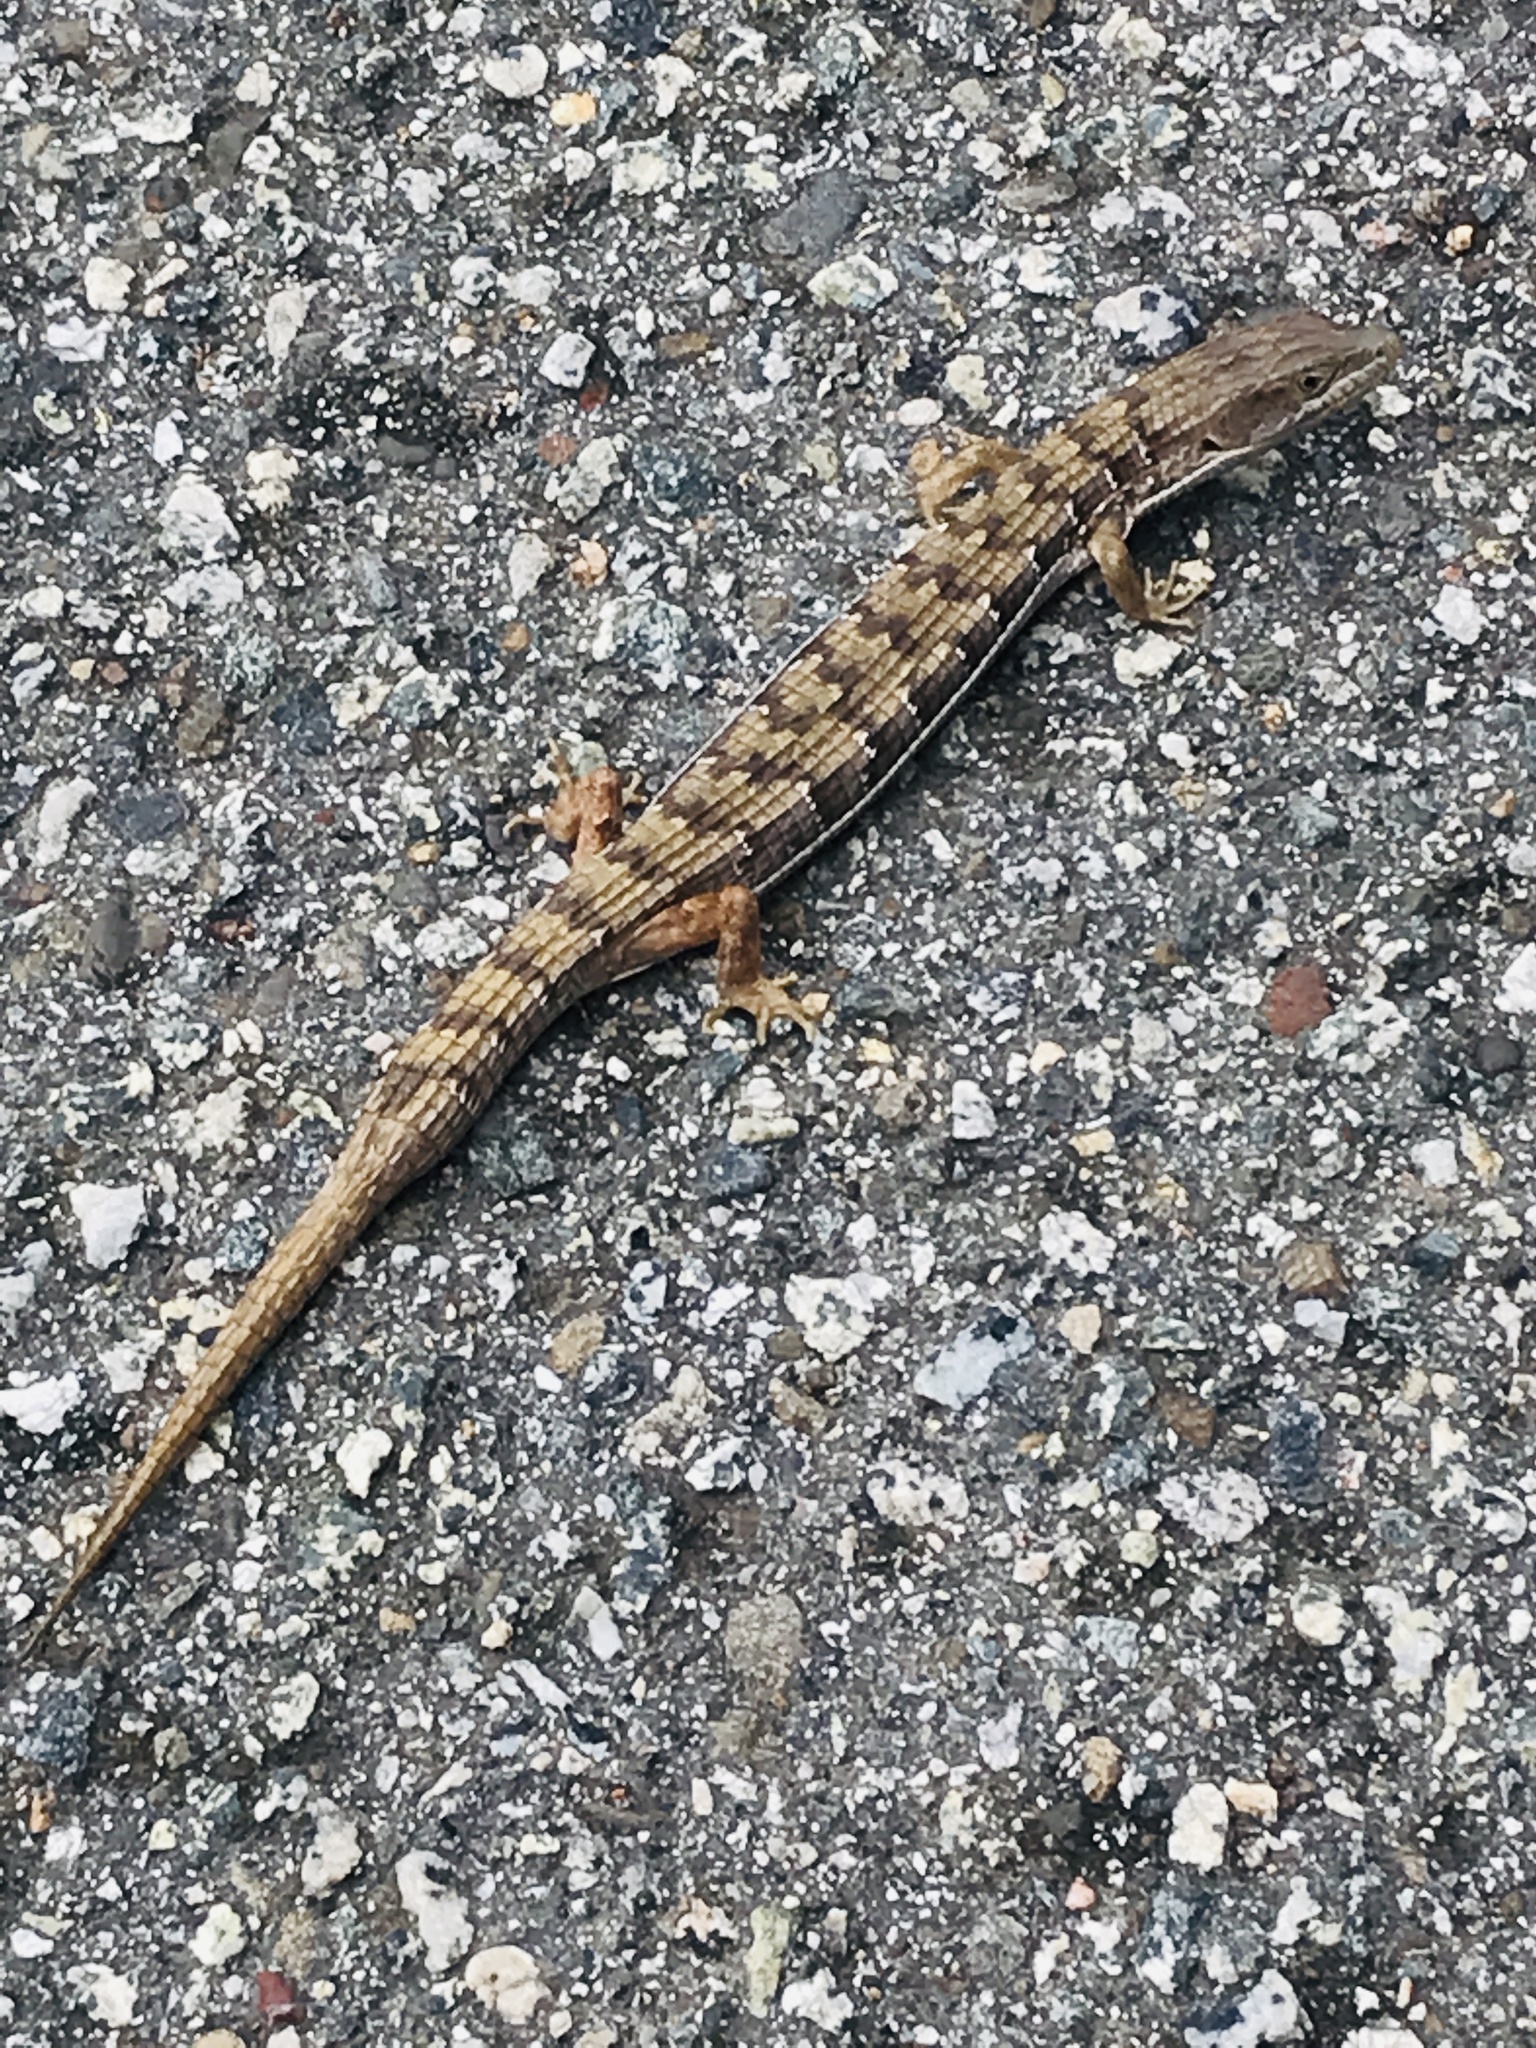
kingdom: Animalia
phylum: Chordata
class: Squamata
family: Anguidae
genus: Elgaria
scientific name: Elgaria multicarinata
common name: Southern alligator lizard
